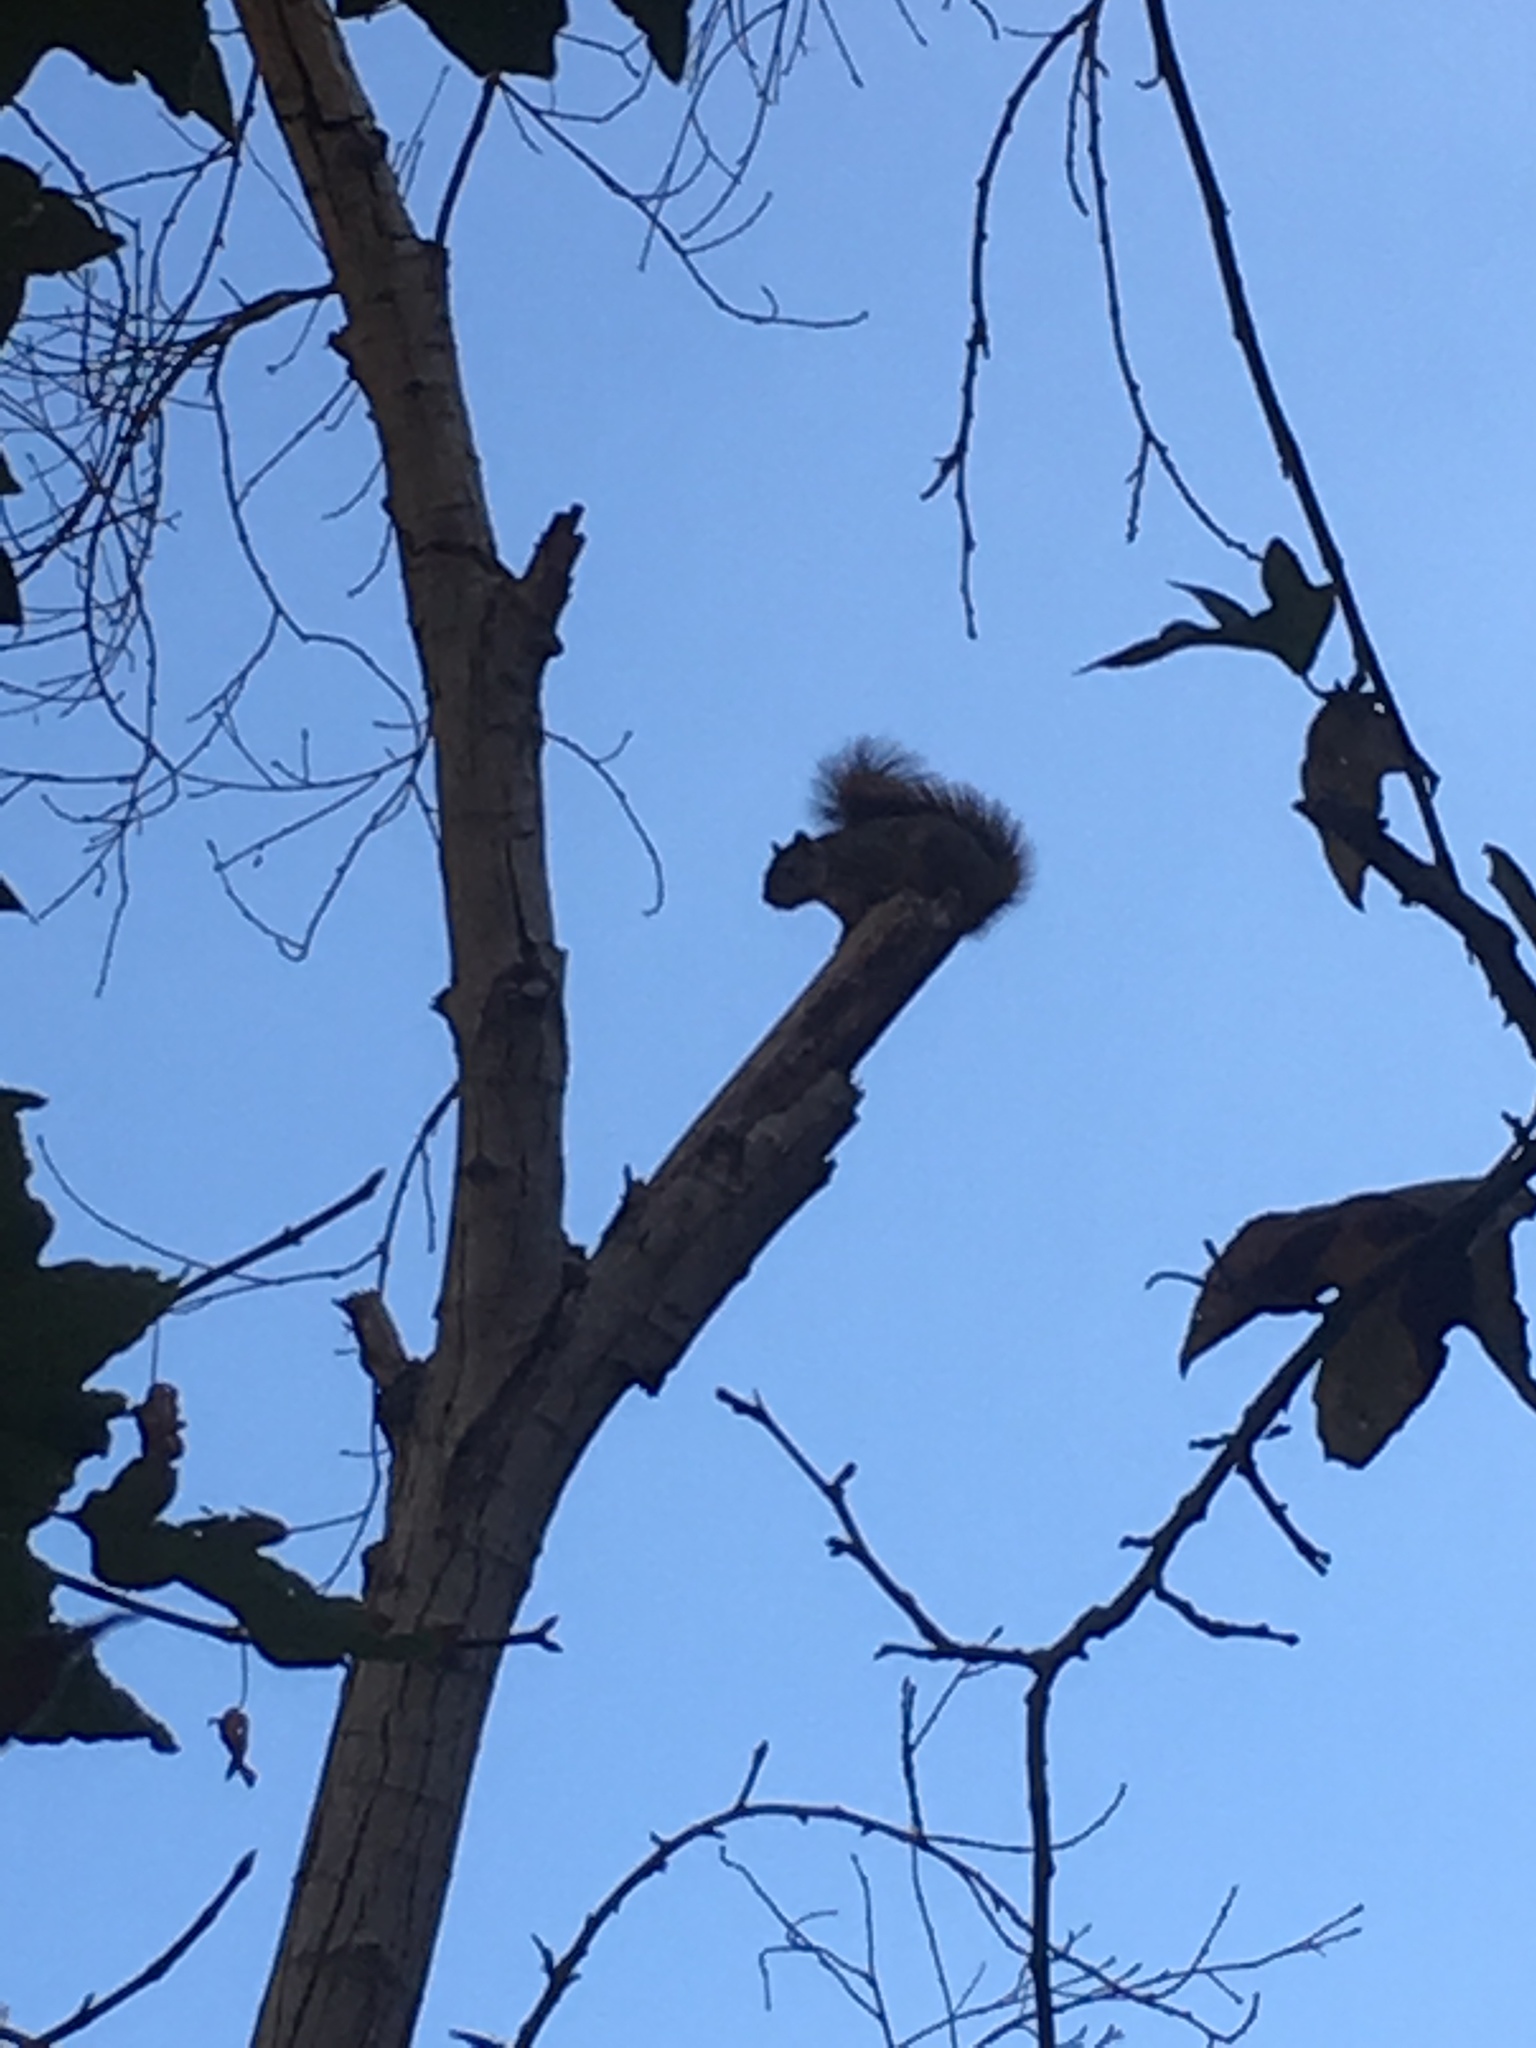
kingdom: Animalia
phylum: Chordata
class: Mammalia
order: Rodentia
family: Sciuridae
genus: Sciurus
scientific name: Sciurus niger
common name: Fox squirrel
